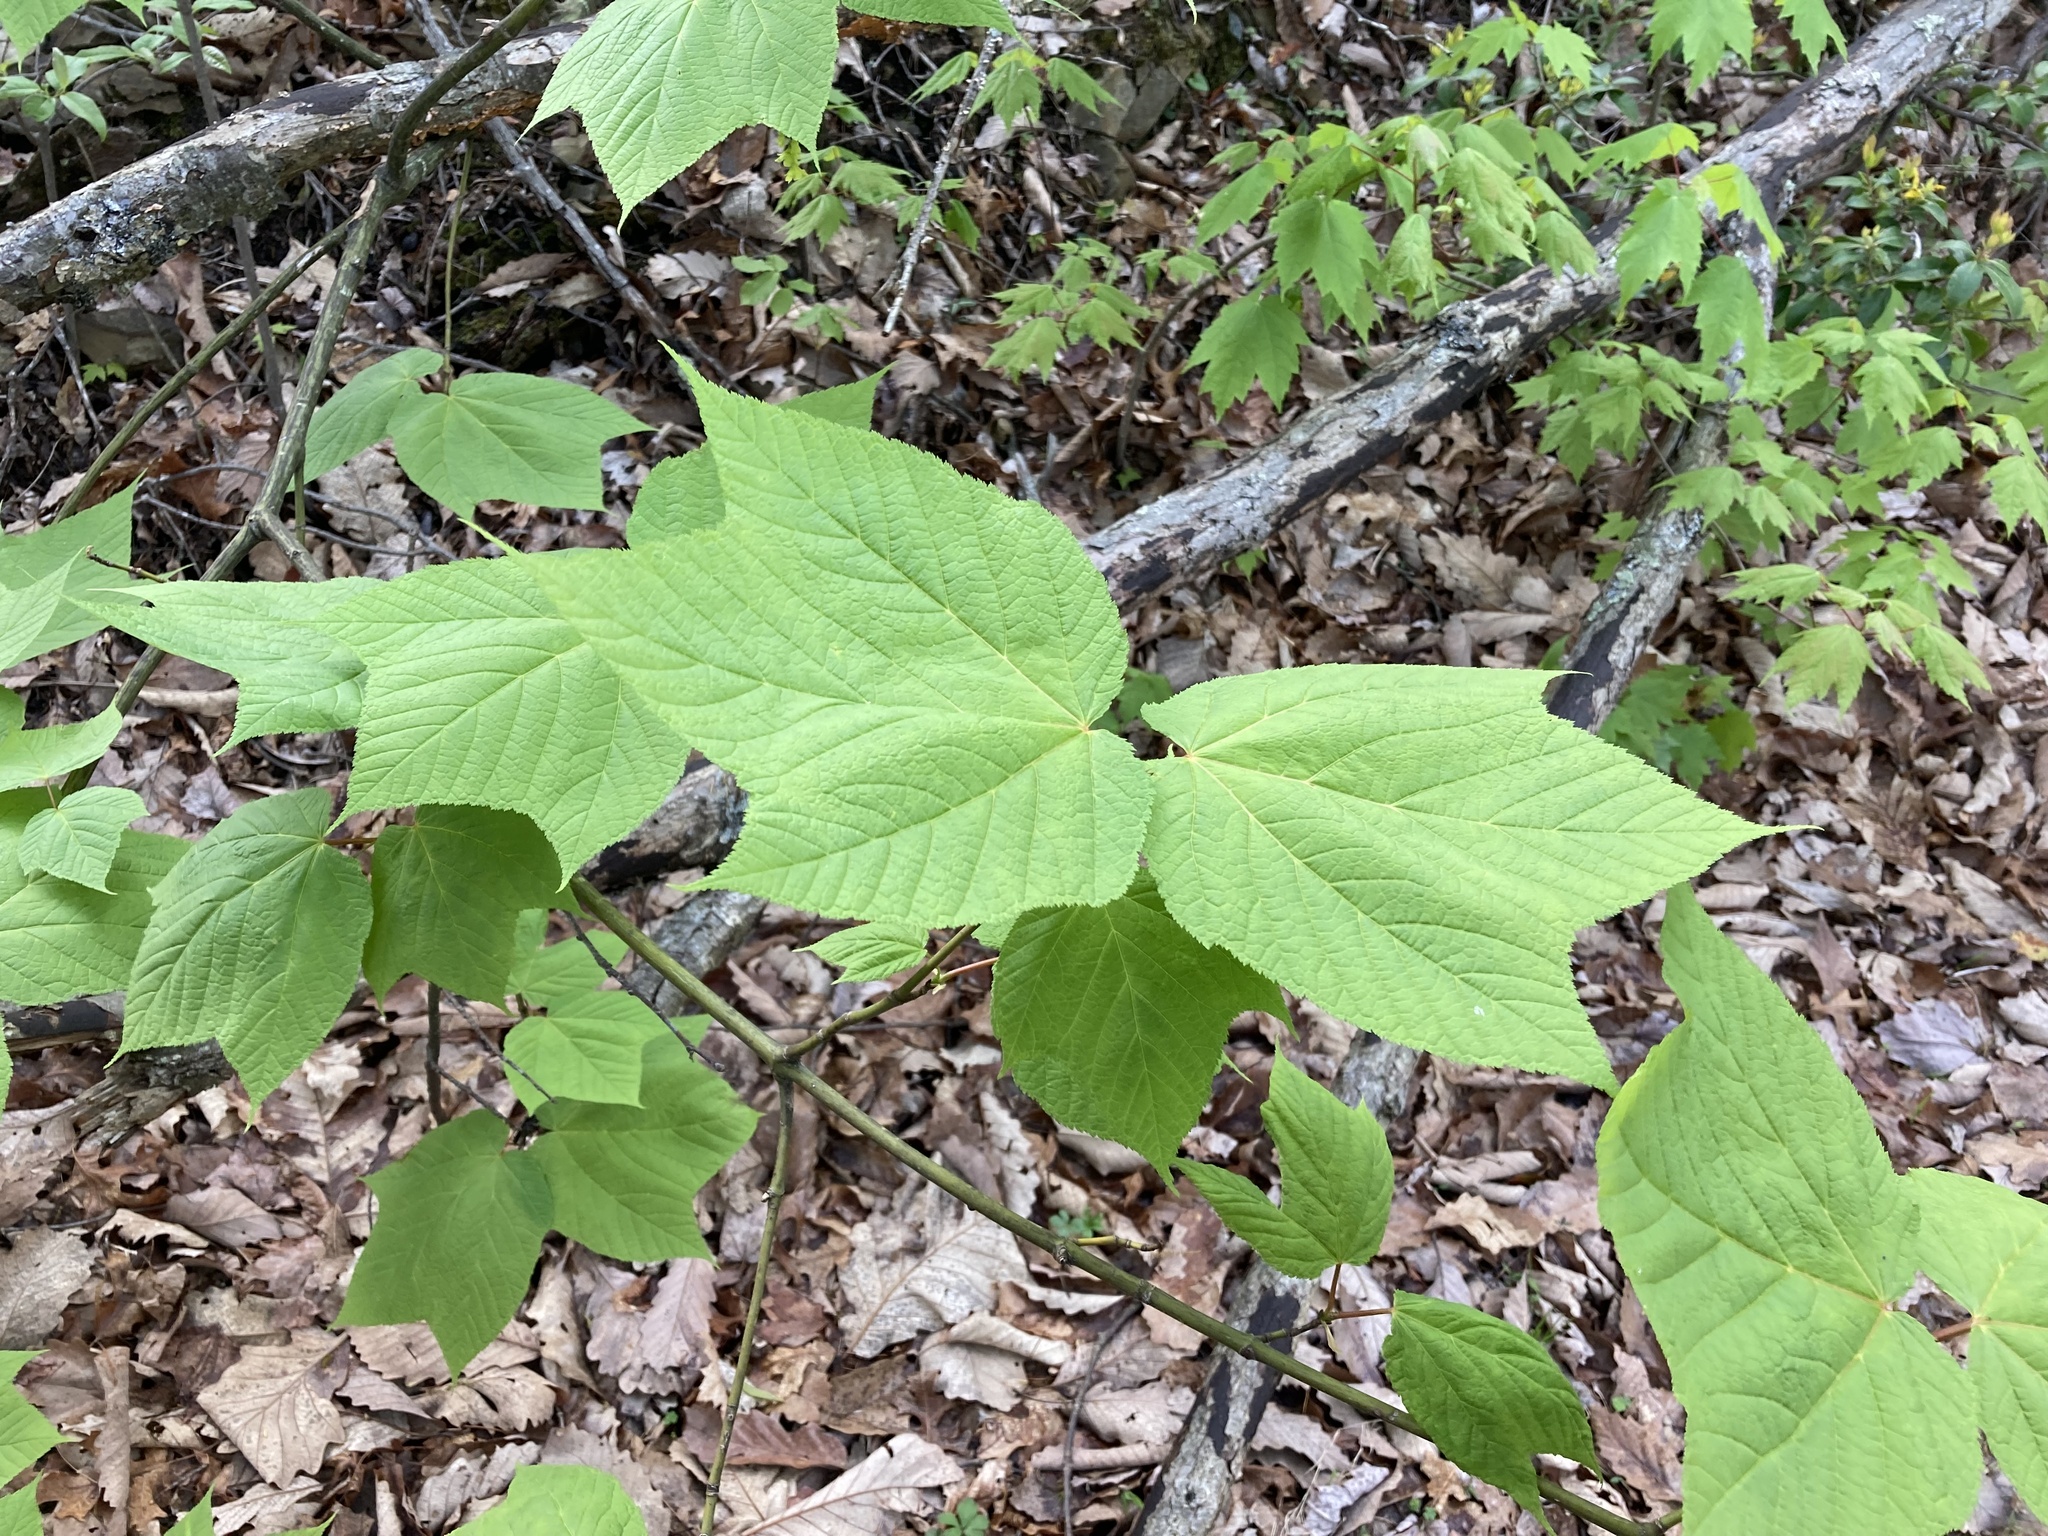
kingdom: Plantae
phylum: Tracheophyta
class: Magnoliopsida
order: Sapindales
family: Sapindaceae
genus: Acer
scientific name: Acer pensylvanicum
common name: Moosewood
